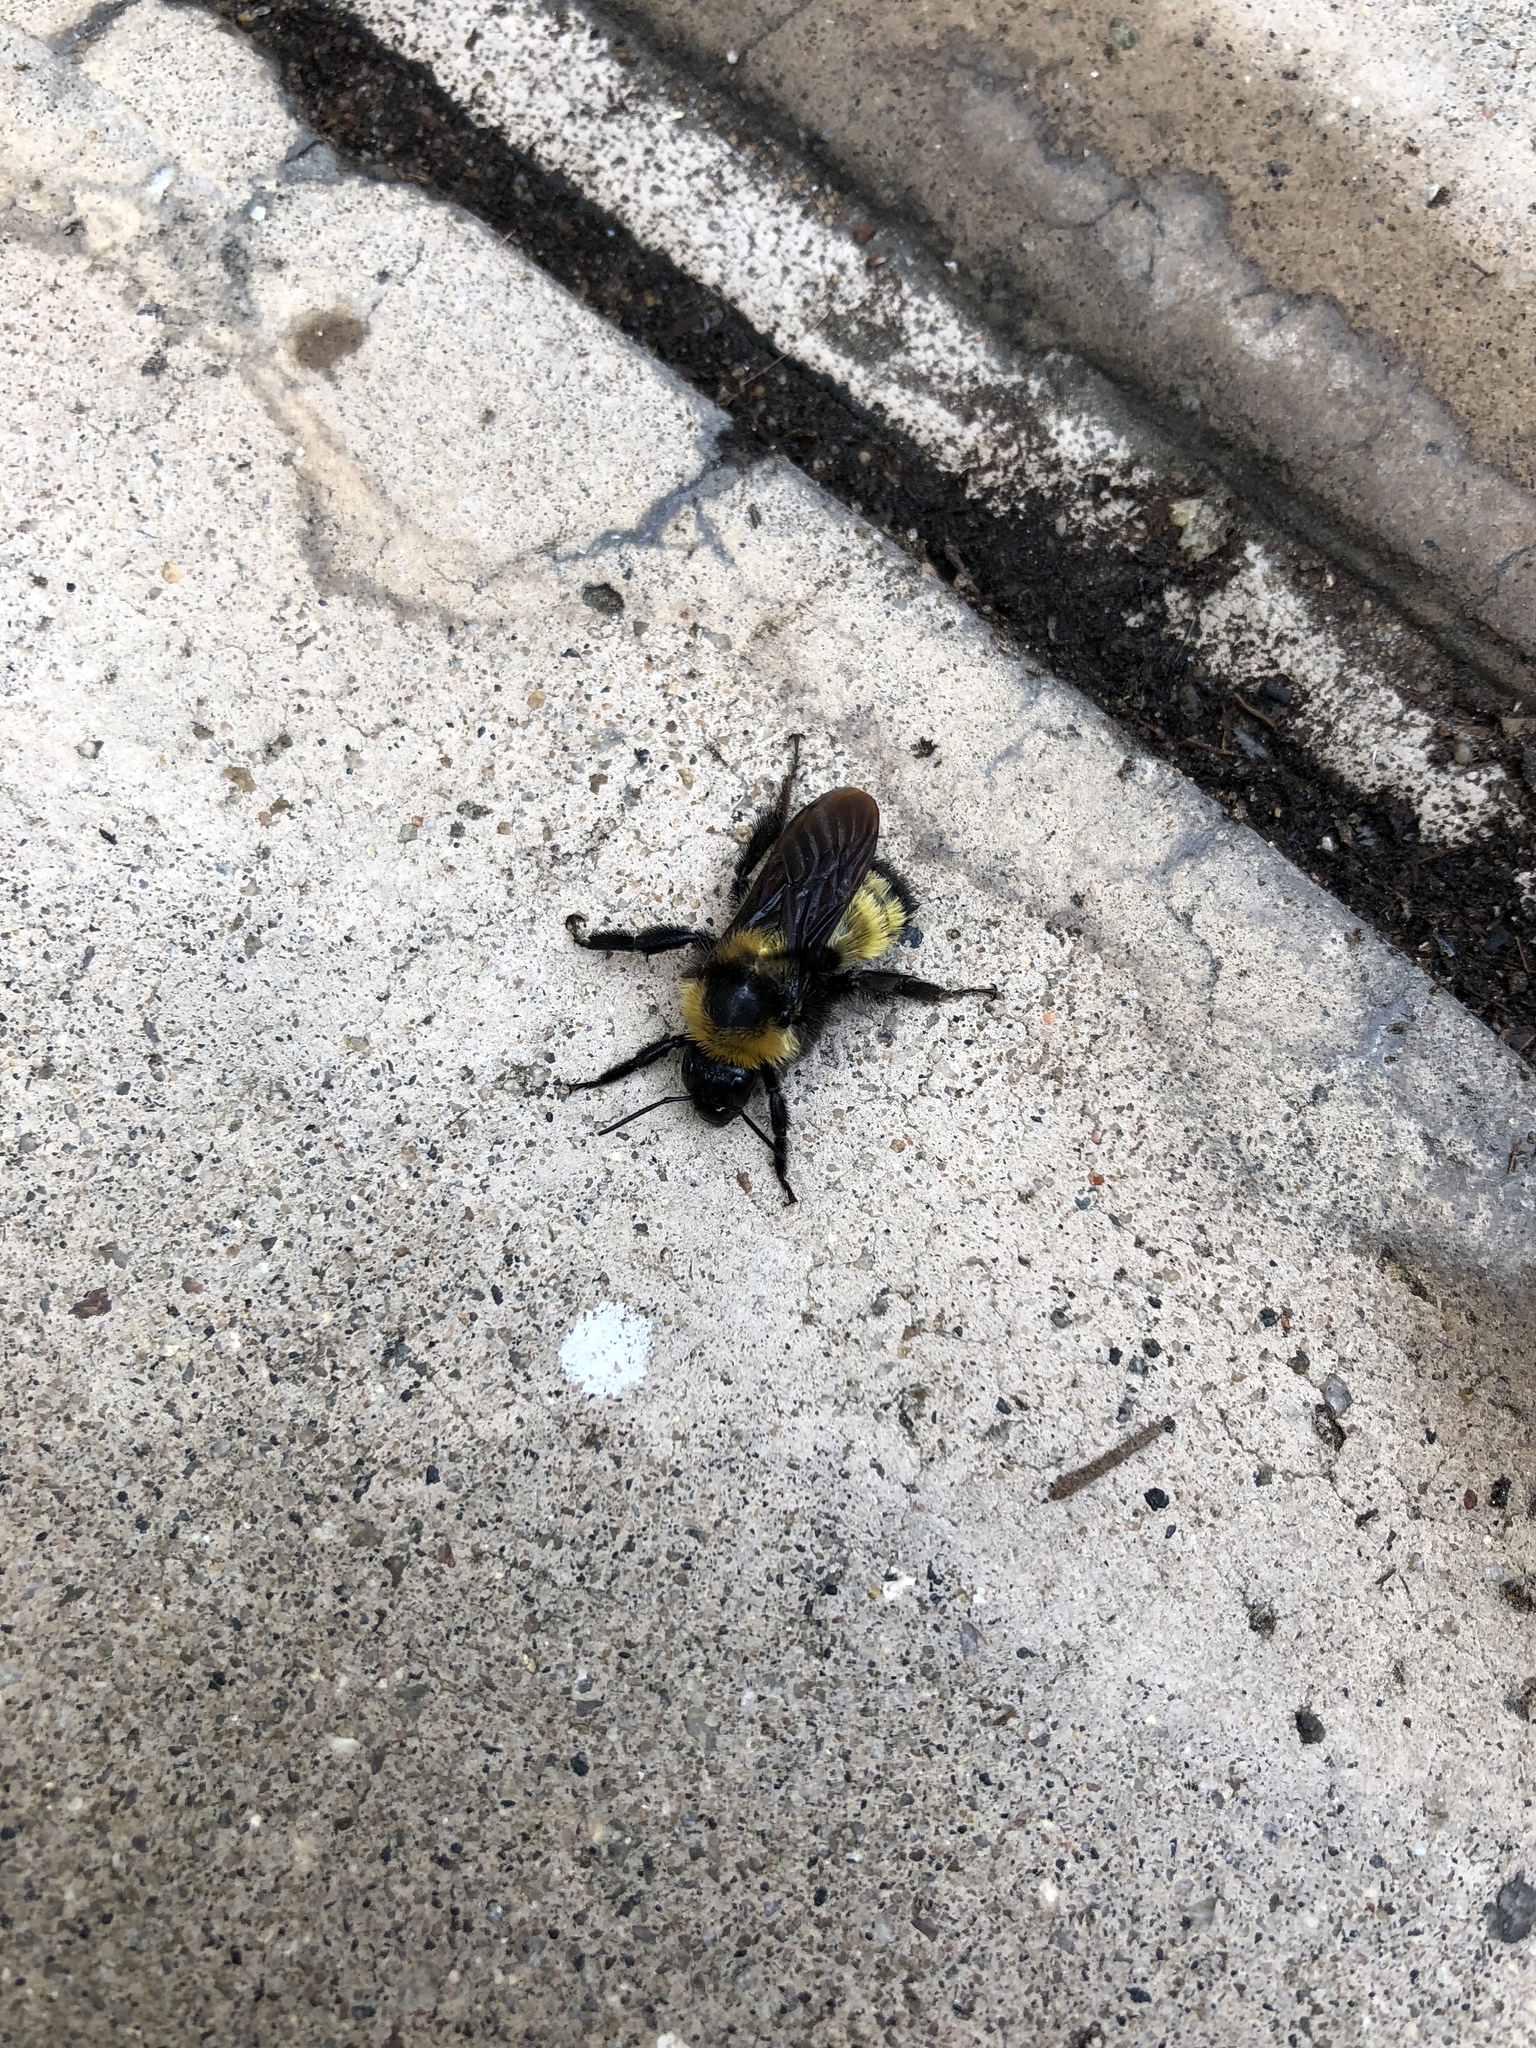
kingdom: Animalia
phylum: Arthropoda
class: Insecta
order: Hymenoptera
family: Apidae
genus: Bombus
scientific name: Bombus sonorus
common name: Sonoran bumble bee
